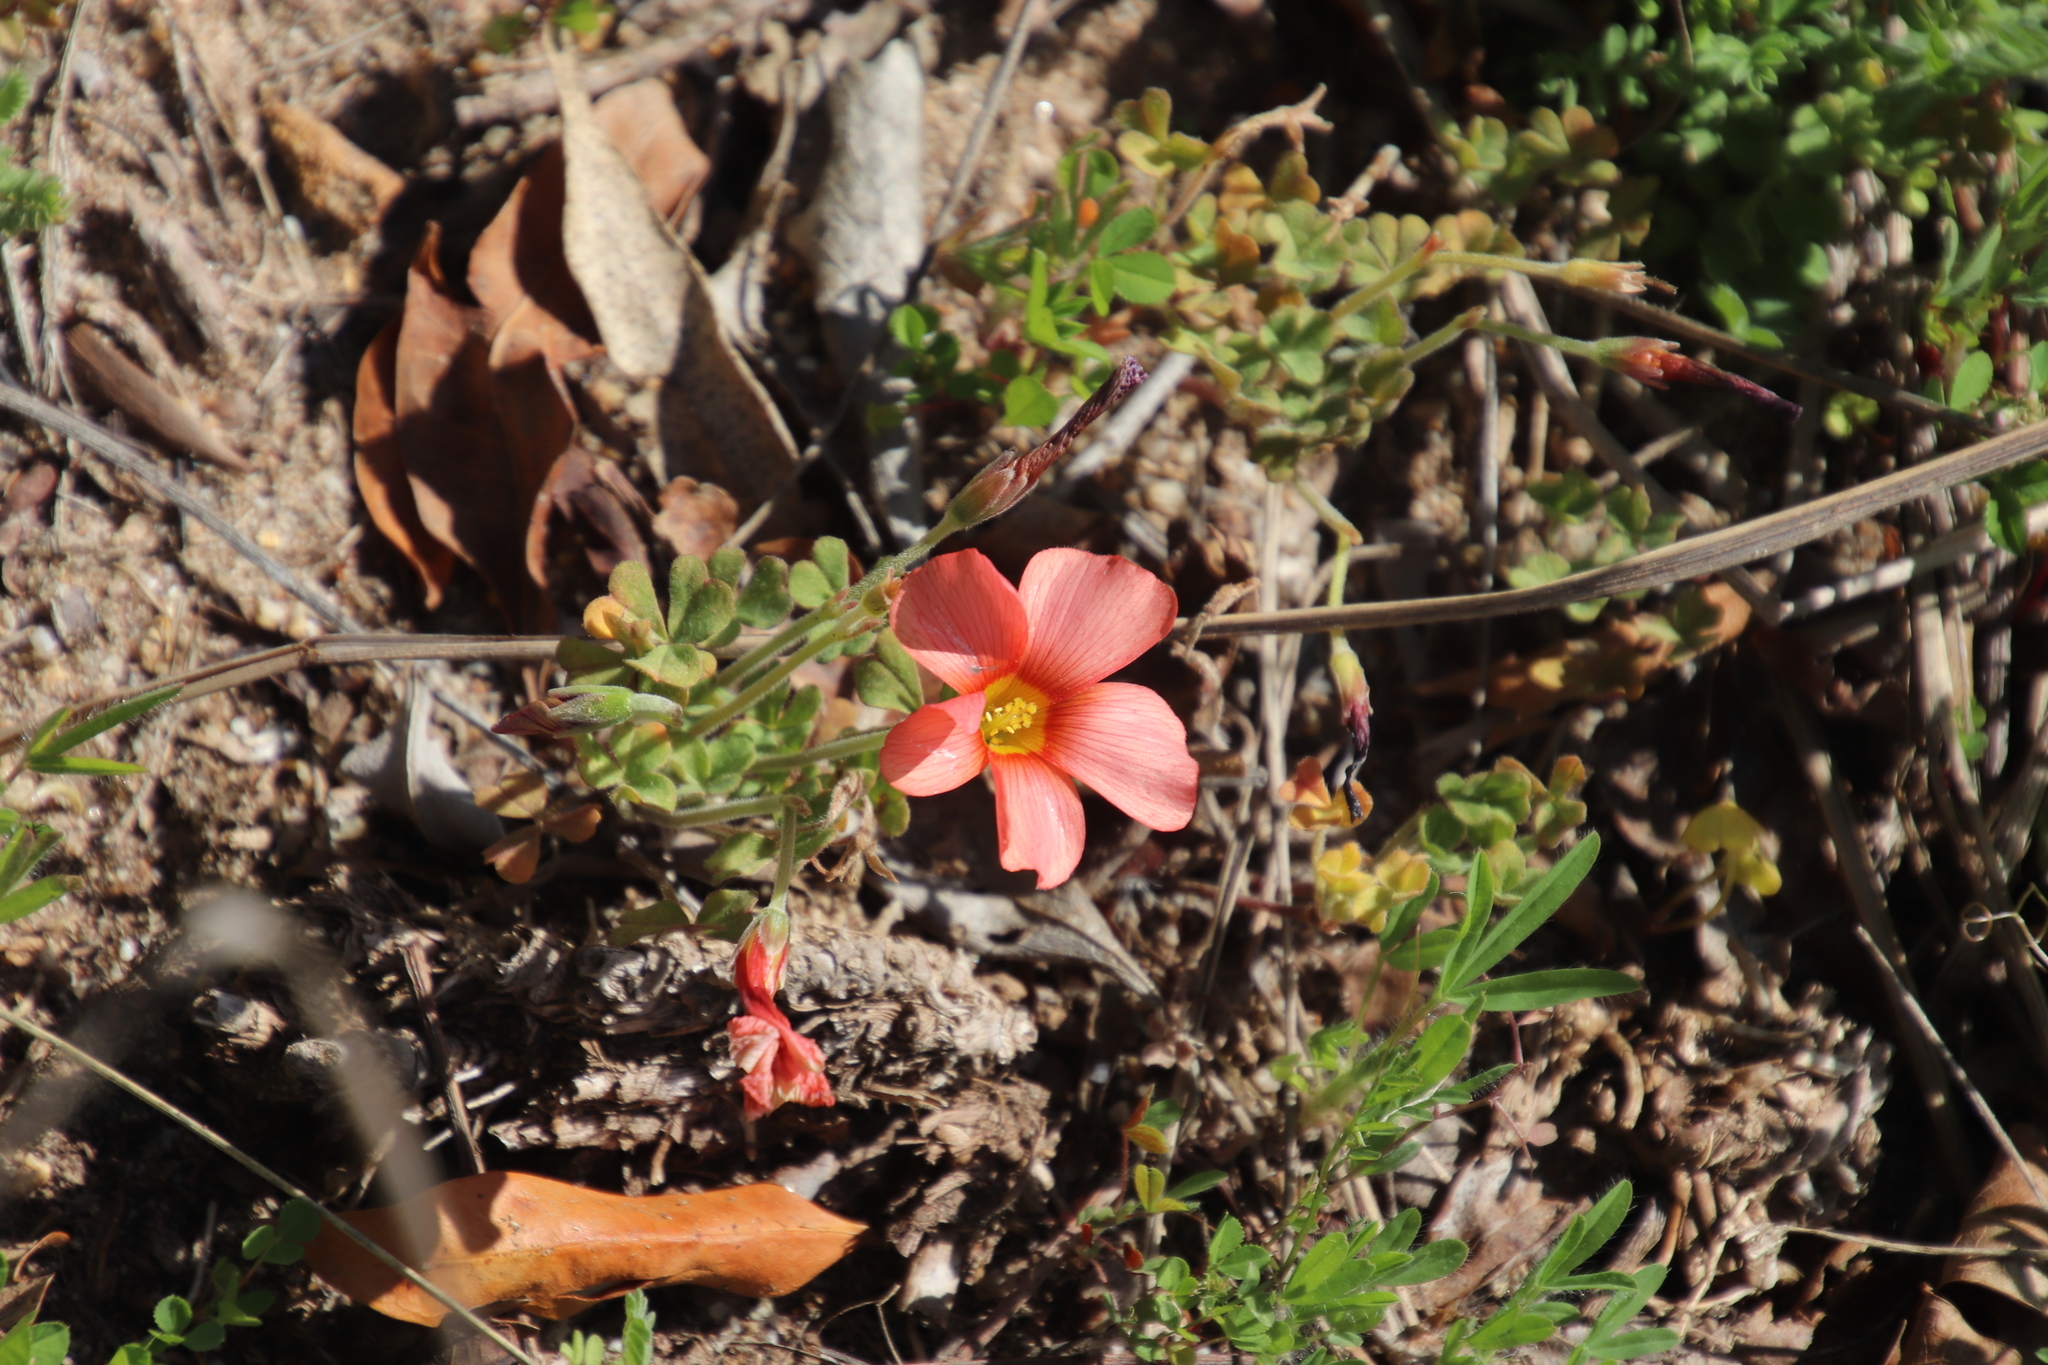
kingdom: Plantae
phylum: Tracheophyta
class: Magnoliopsida
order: Oxalidales
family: Oxalidaceae
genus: Oxalis
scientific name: Oxalis obtusa
